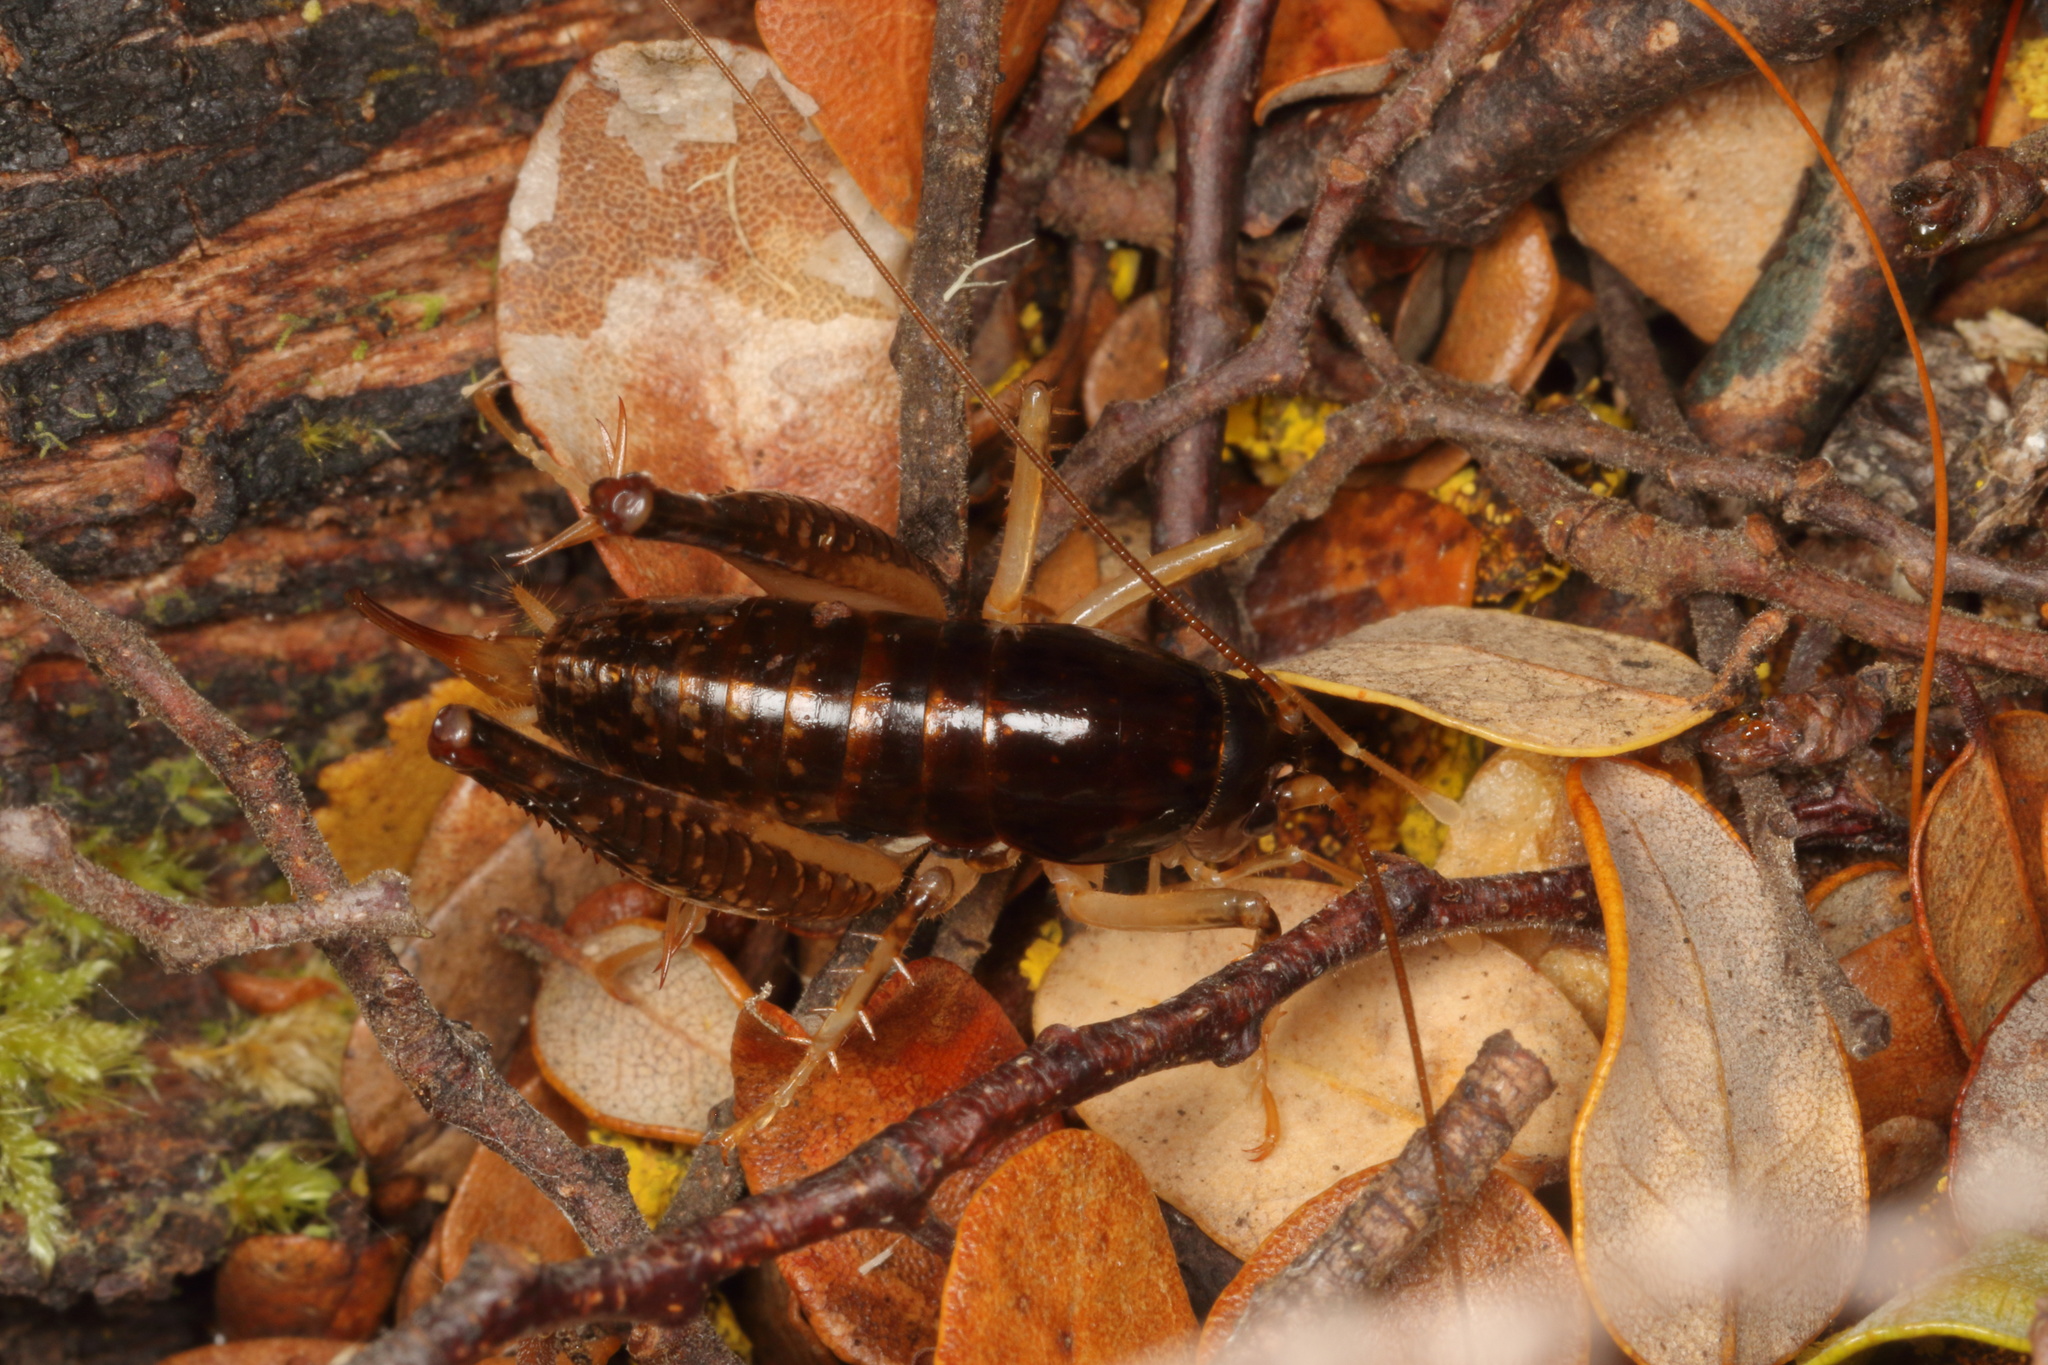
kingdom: Animalia
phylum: Arthropoda
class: Insecta
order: Orthoptera
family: Anostostomatidae
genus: Hemiandrus
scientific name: Hemiandrus nox
